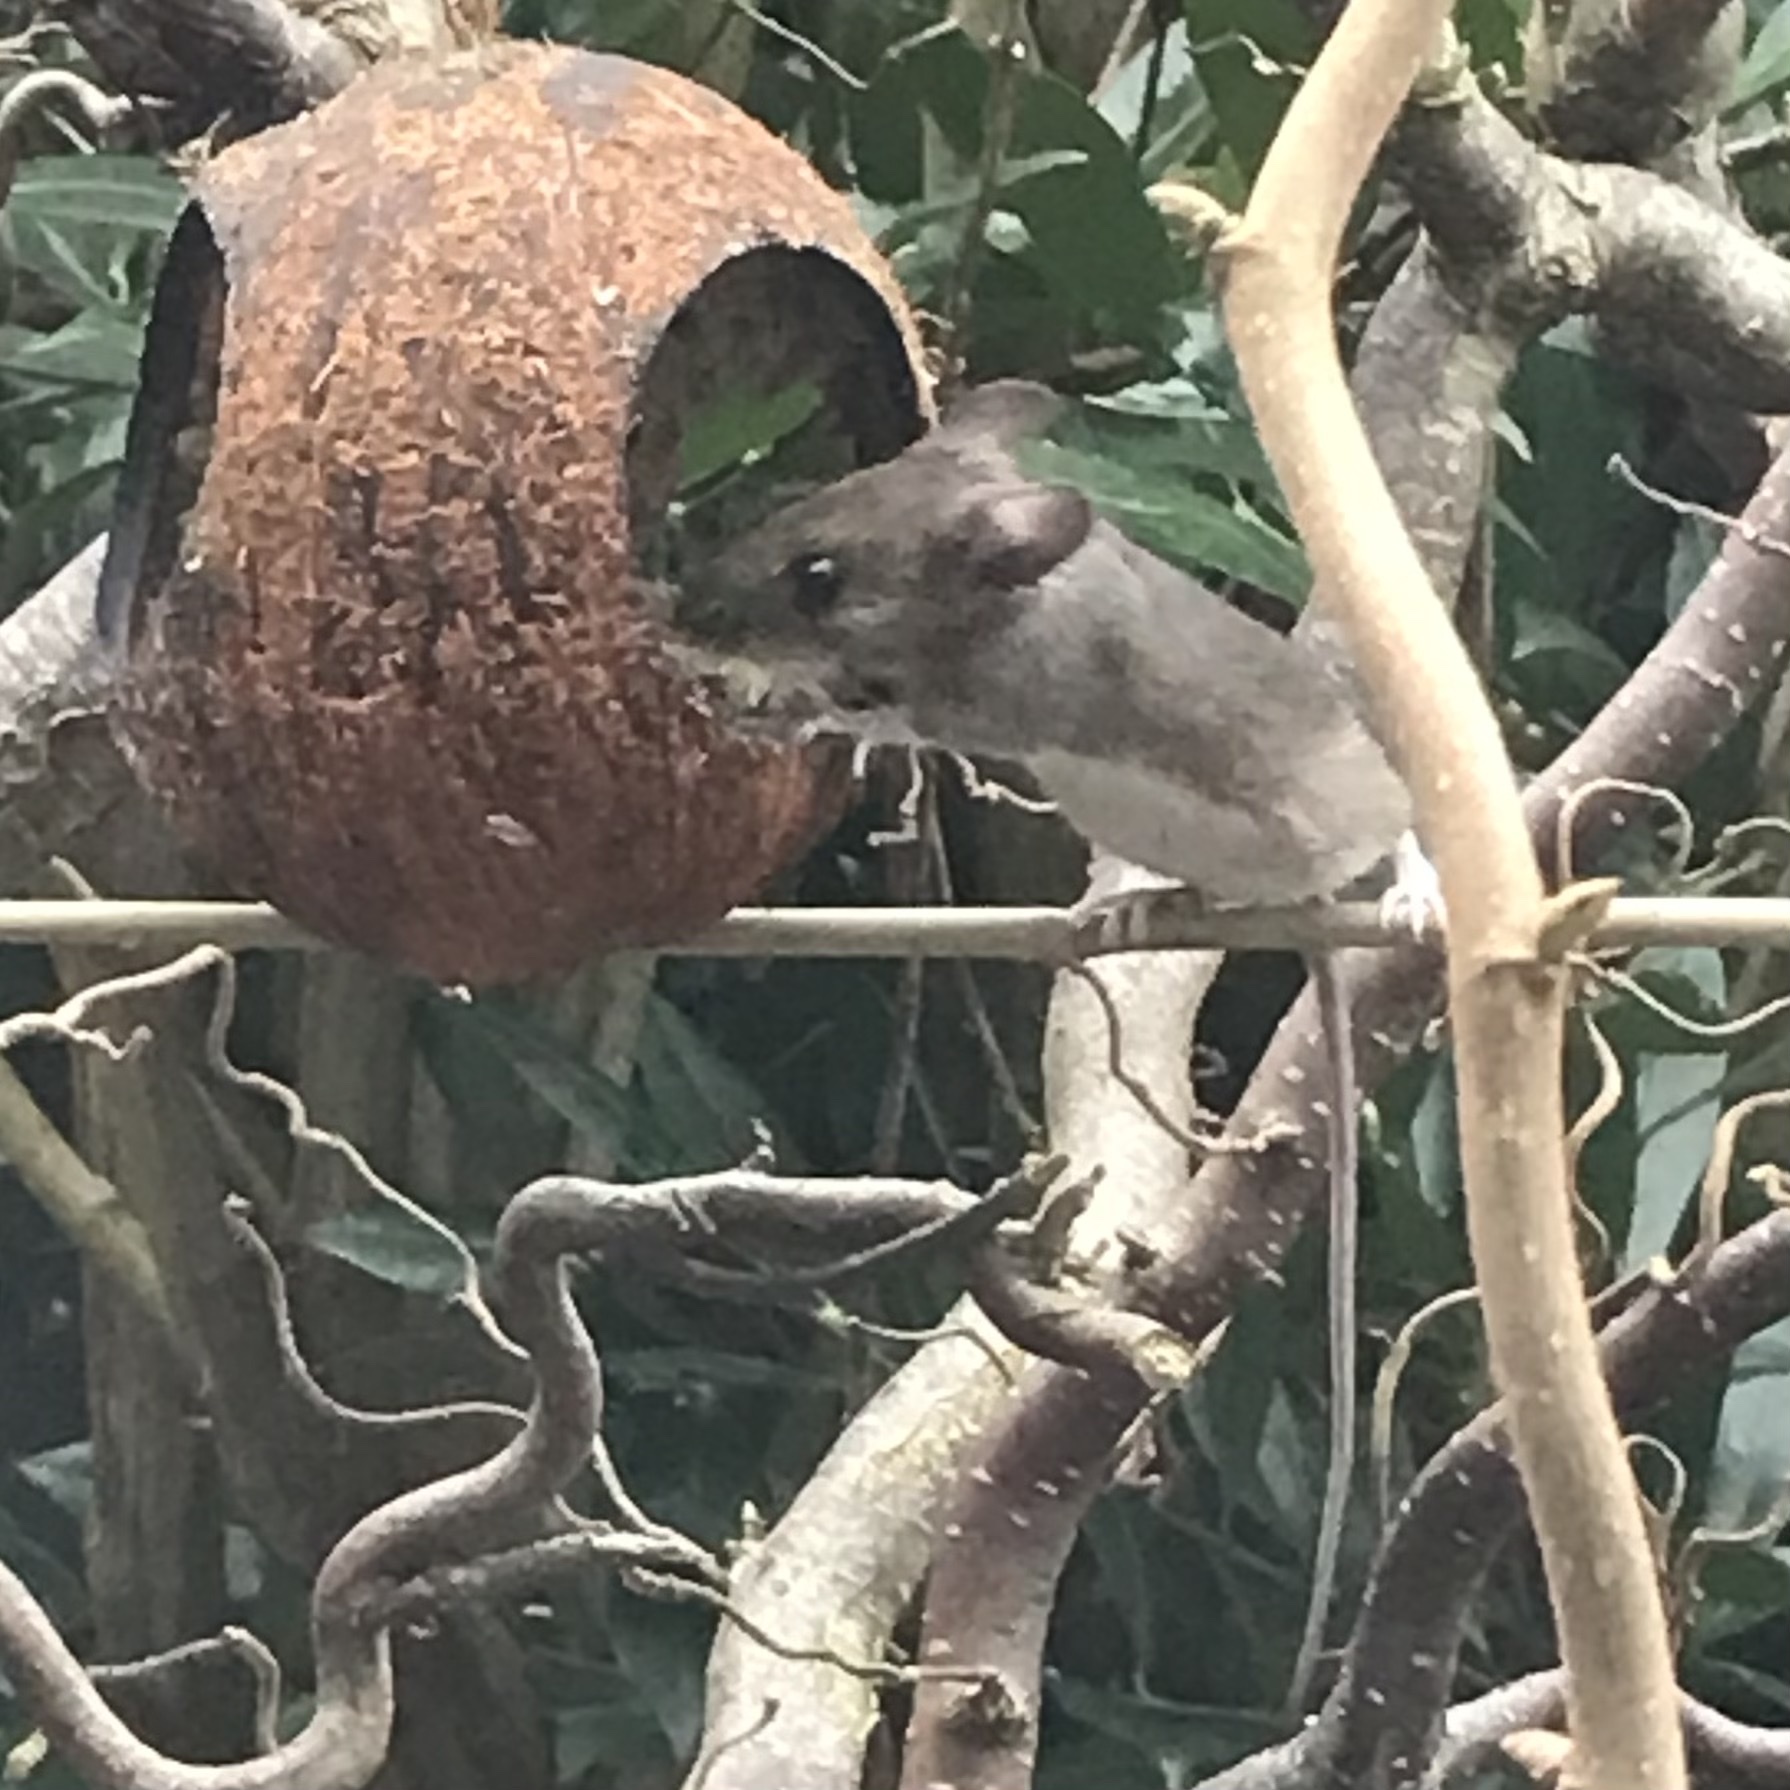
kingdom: Animalia
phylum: Chordata
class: Mammalia
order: Rodentia
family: Muridae
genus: Apodemus
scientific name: Apodemus sylvaticus
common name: Wood mouse
